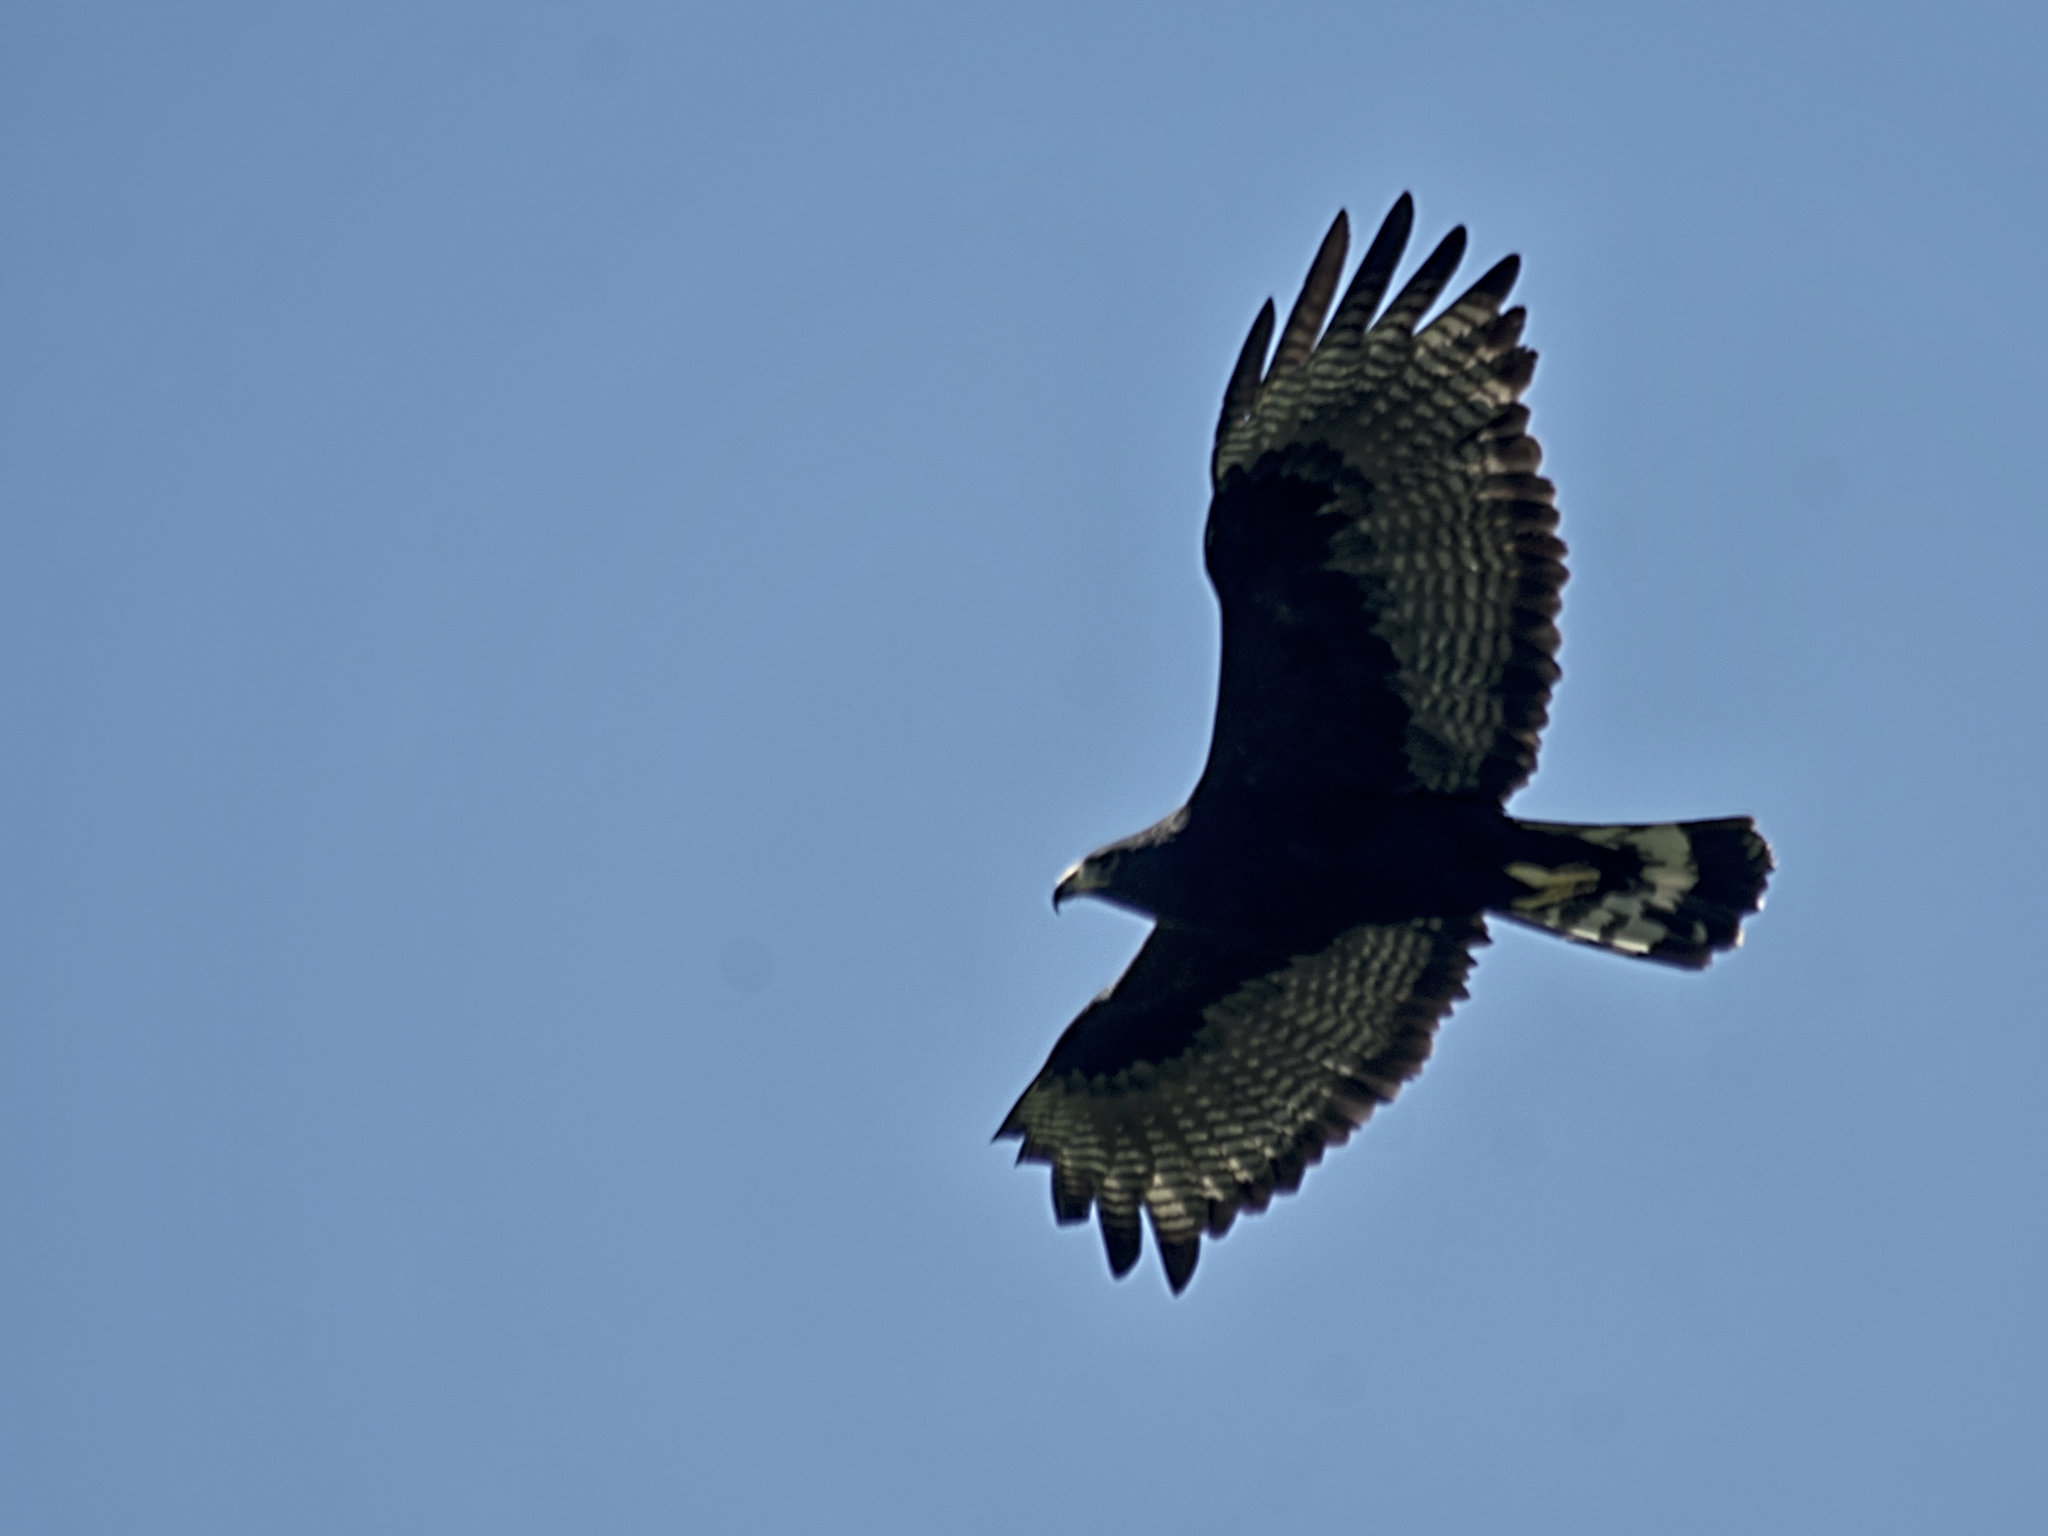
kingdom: Animalia
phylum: Chordata
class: Aves
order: Accipitriformes
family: Accipitridae
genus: Buteo
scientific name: Buteo albonotatus
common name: Zone-tailed hawk
